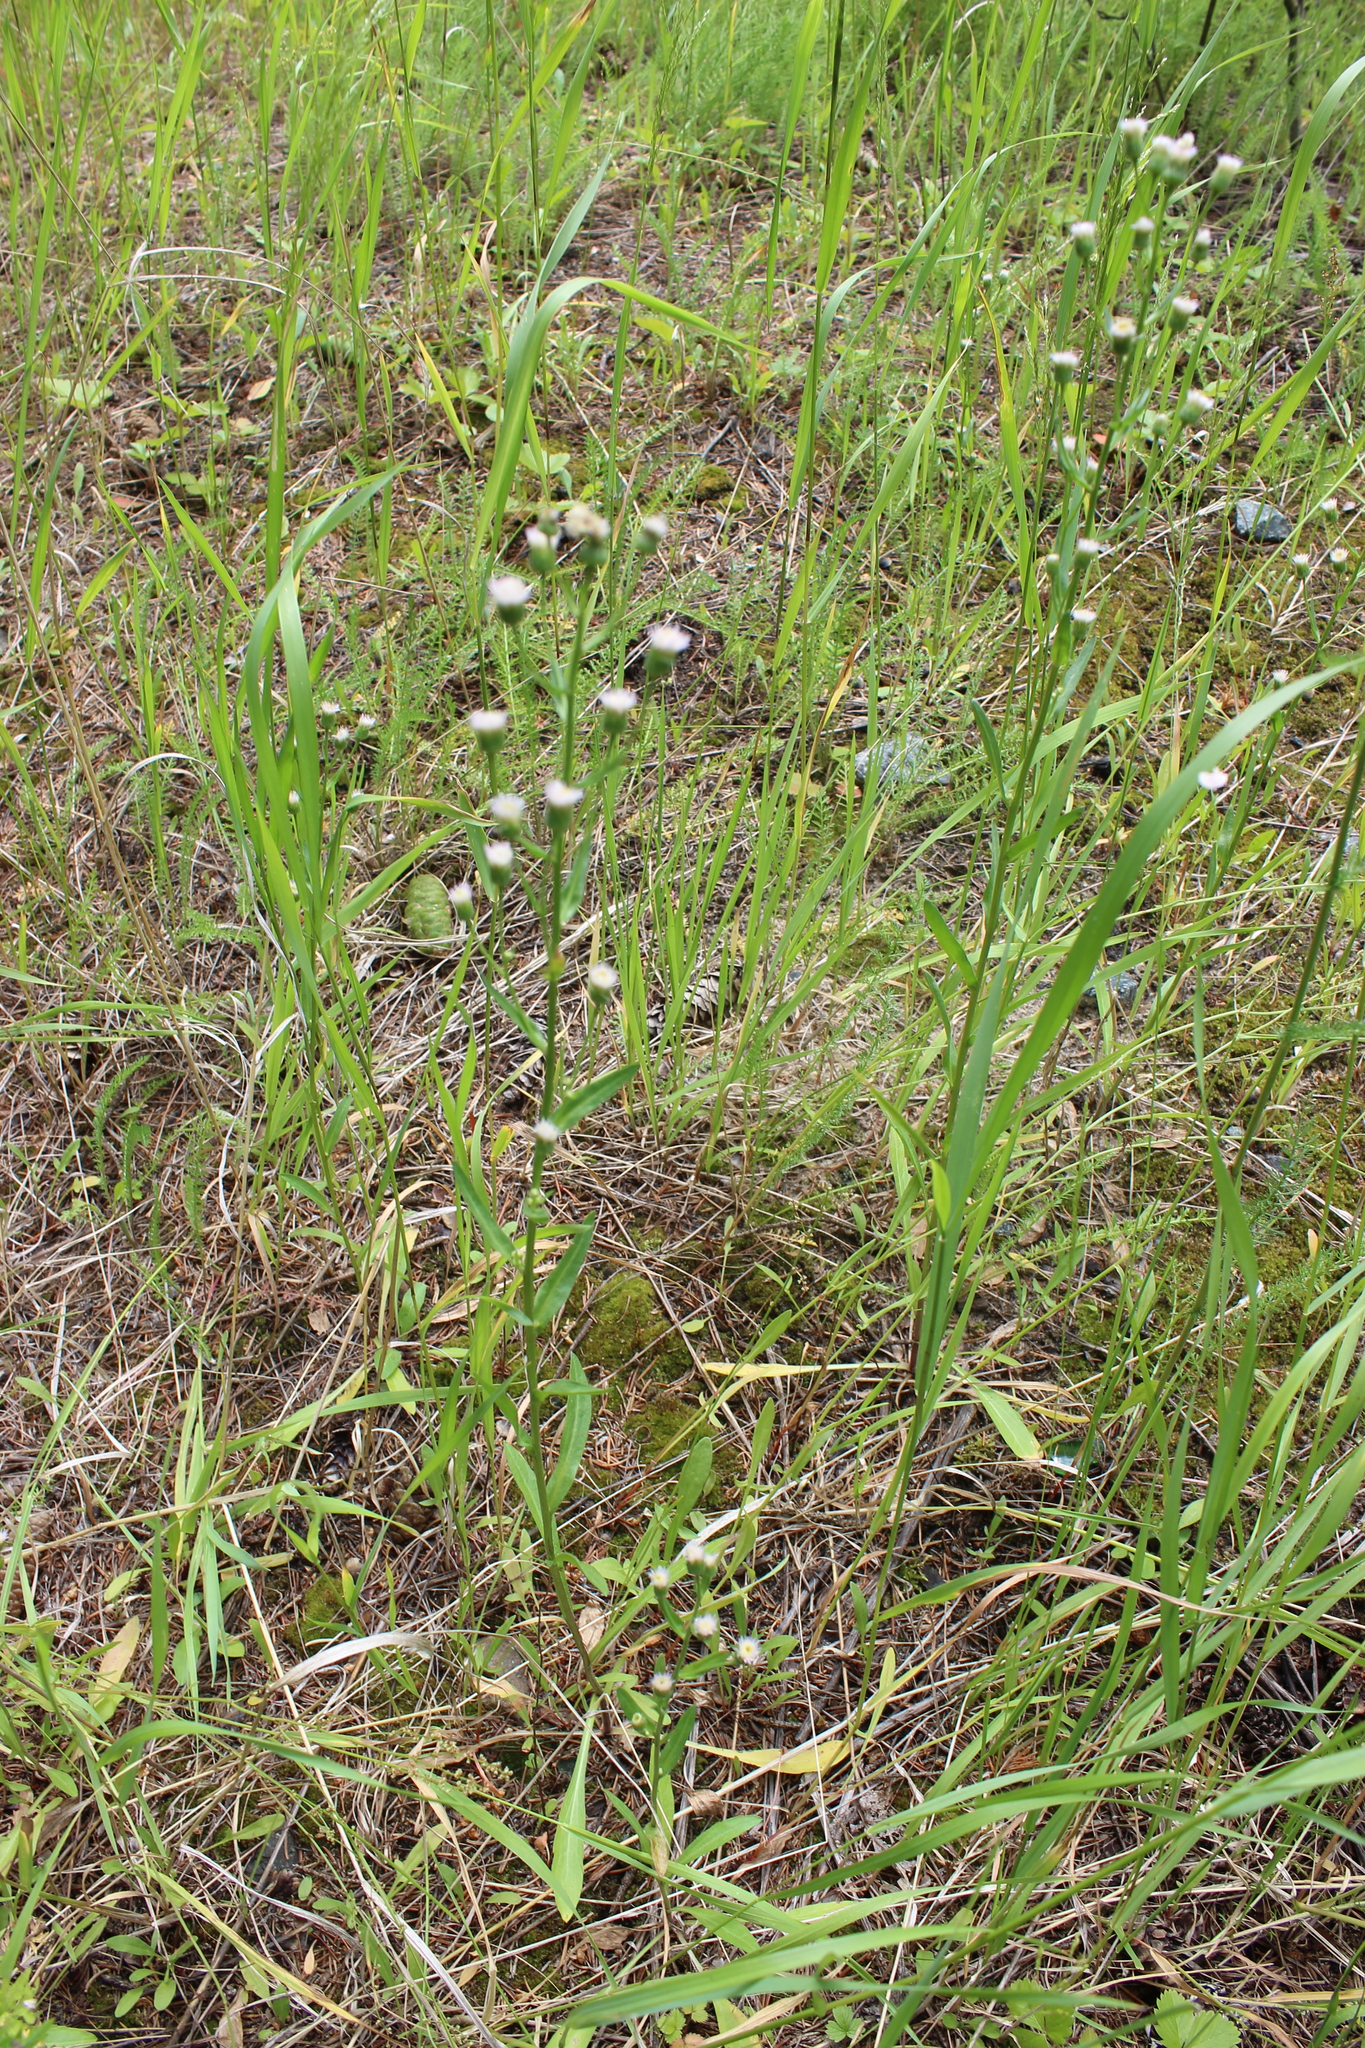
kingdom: Plantae
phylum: Tracheophyta
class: Magnoliopsida
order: Asterales
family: Asteraceae
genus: Erigeron
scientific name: Erigeron acris
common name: Blue fleabane
